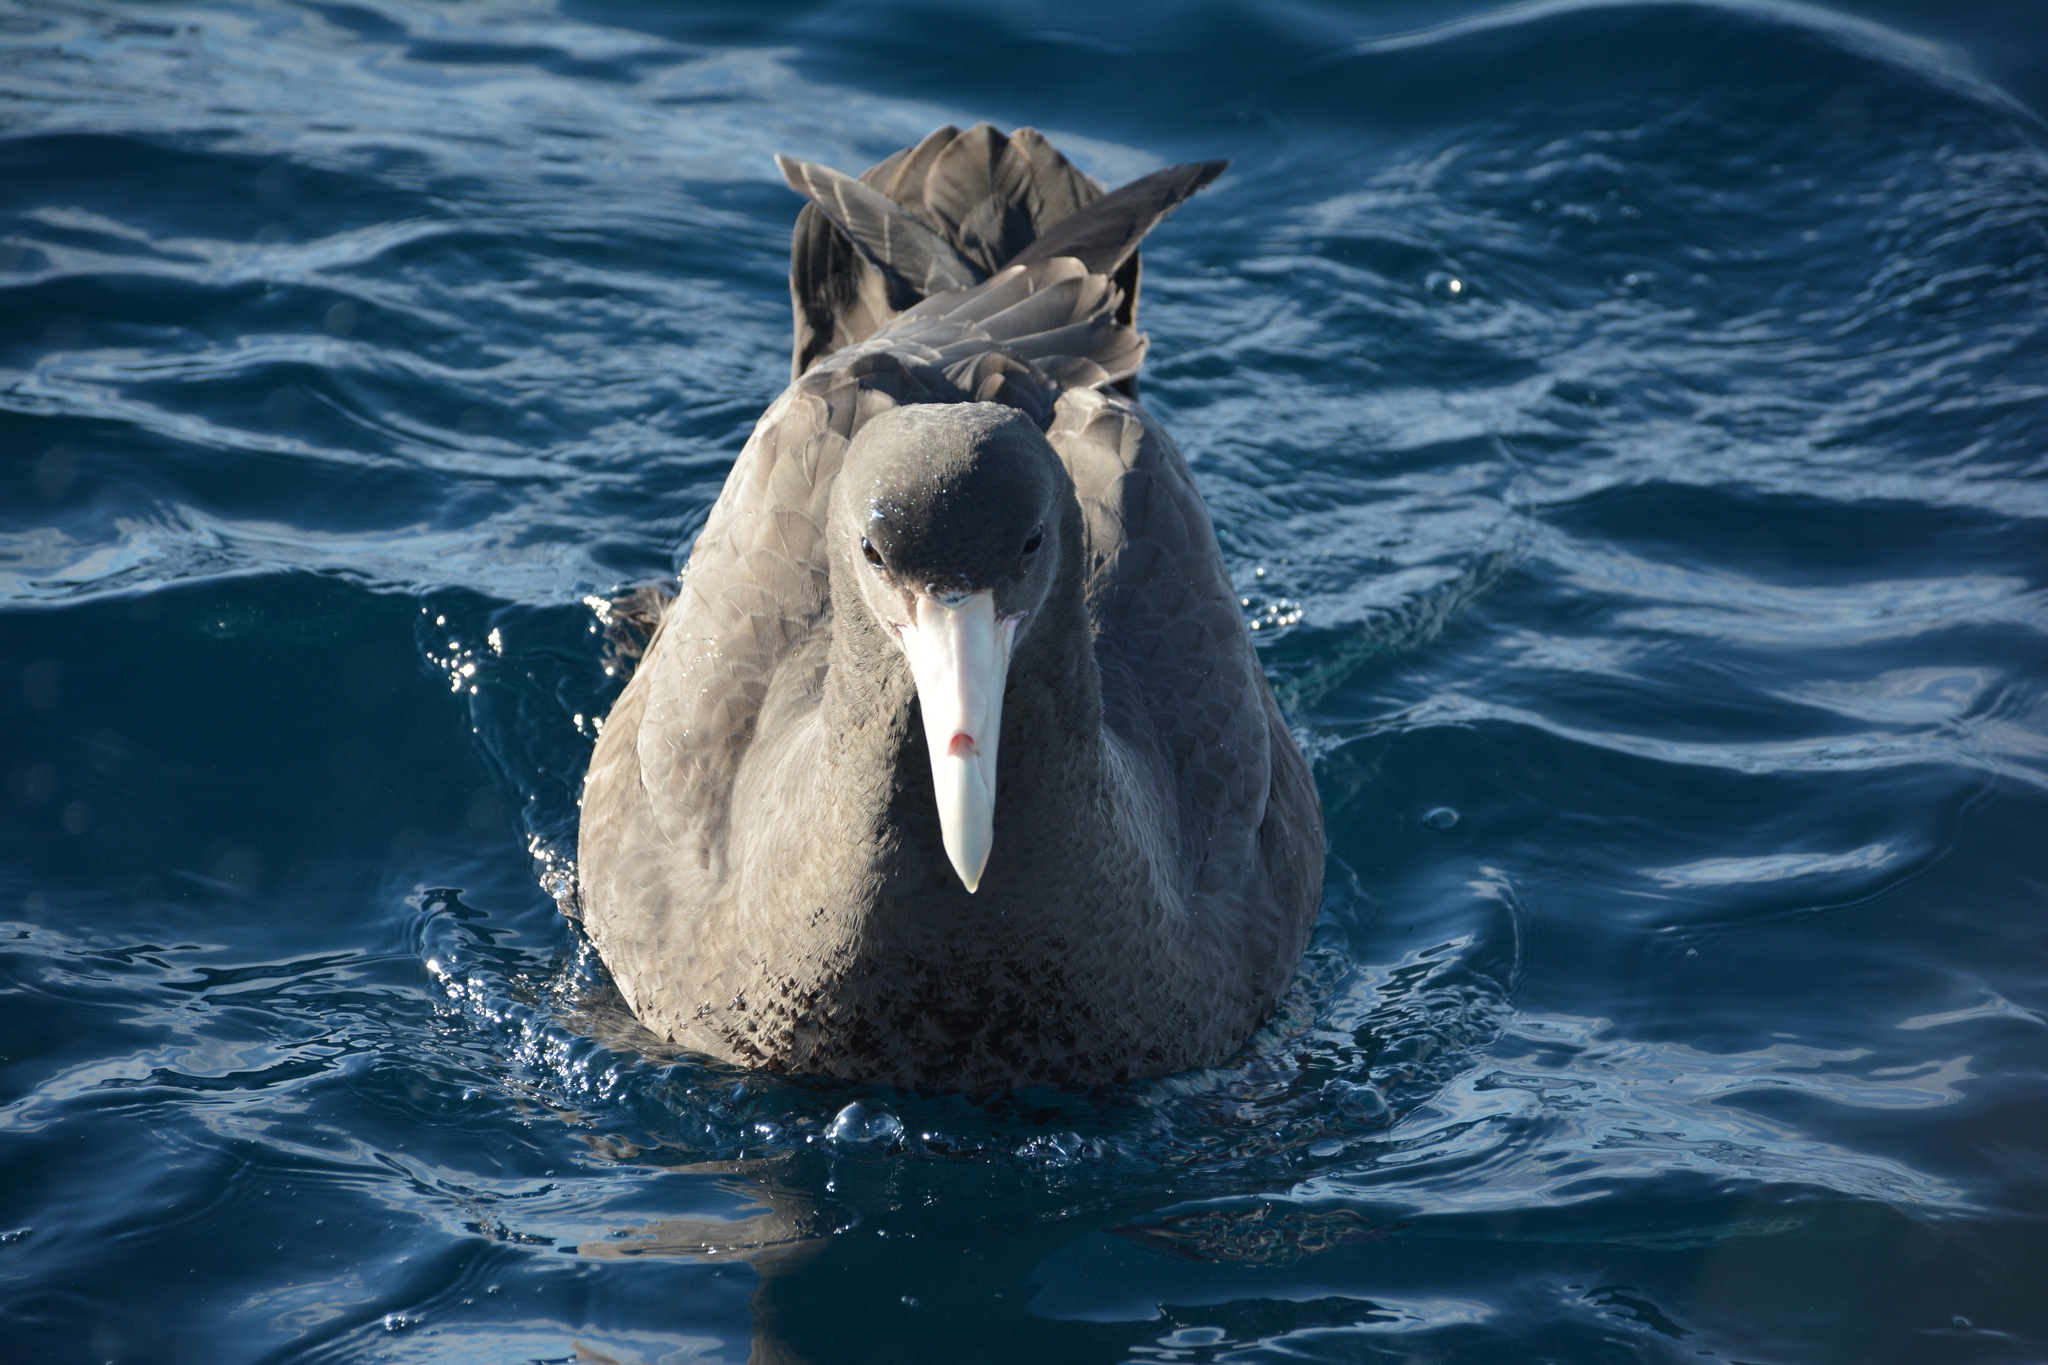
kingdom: Animalia
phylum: Chordata
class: Aves
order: Procellariiformes
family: Procellariidae
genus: Macronectes
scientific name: Macronectes giganteus
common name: Southern giant petrel
